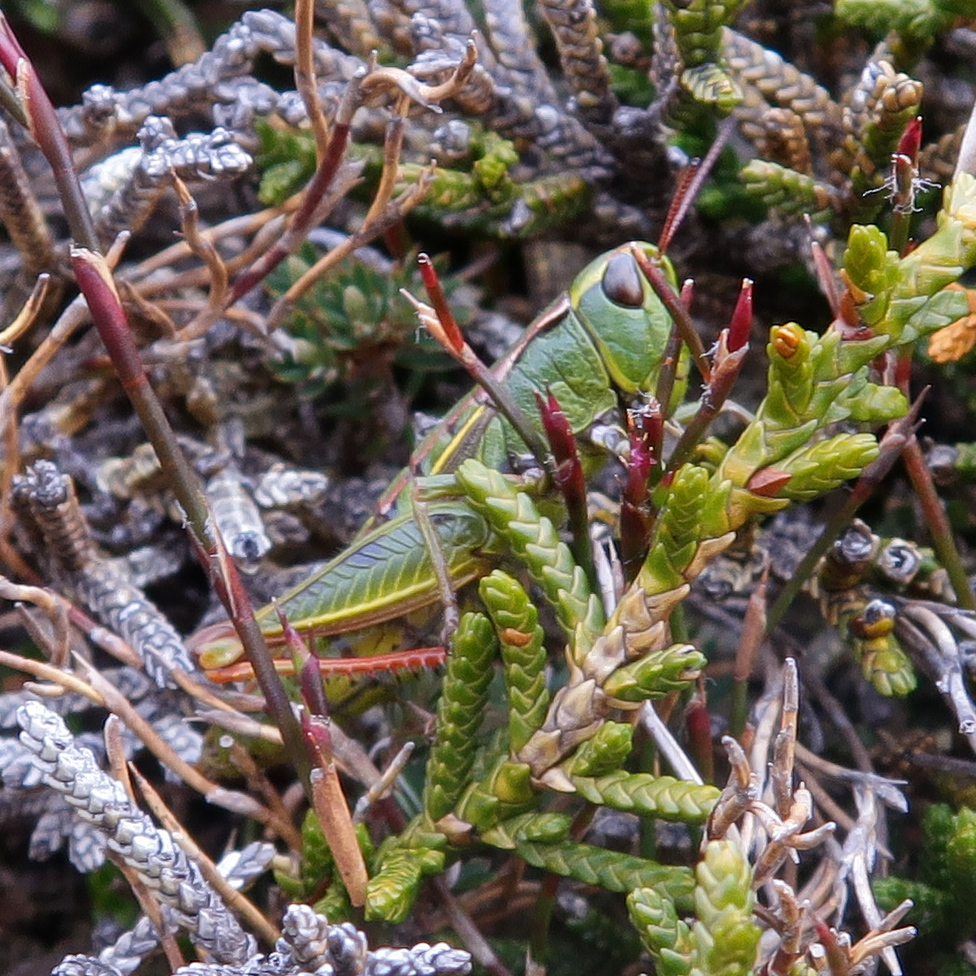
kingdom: Animalia
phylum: Arthropoda
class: Insecta
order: Orthoptera
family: Acrididae
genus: Russalpia
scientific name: Russalpia albertisi
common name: Tassie hopper
